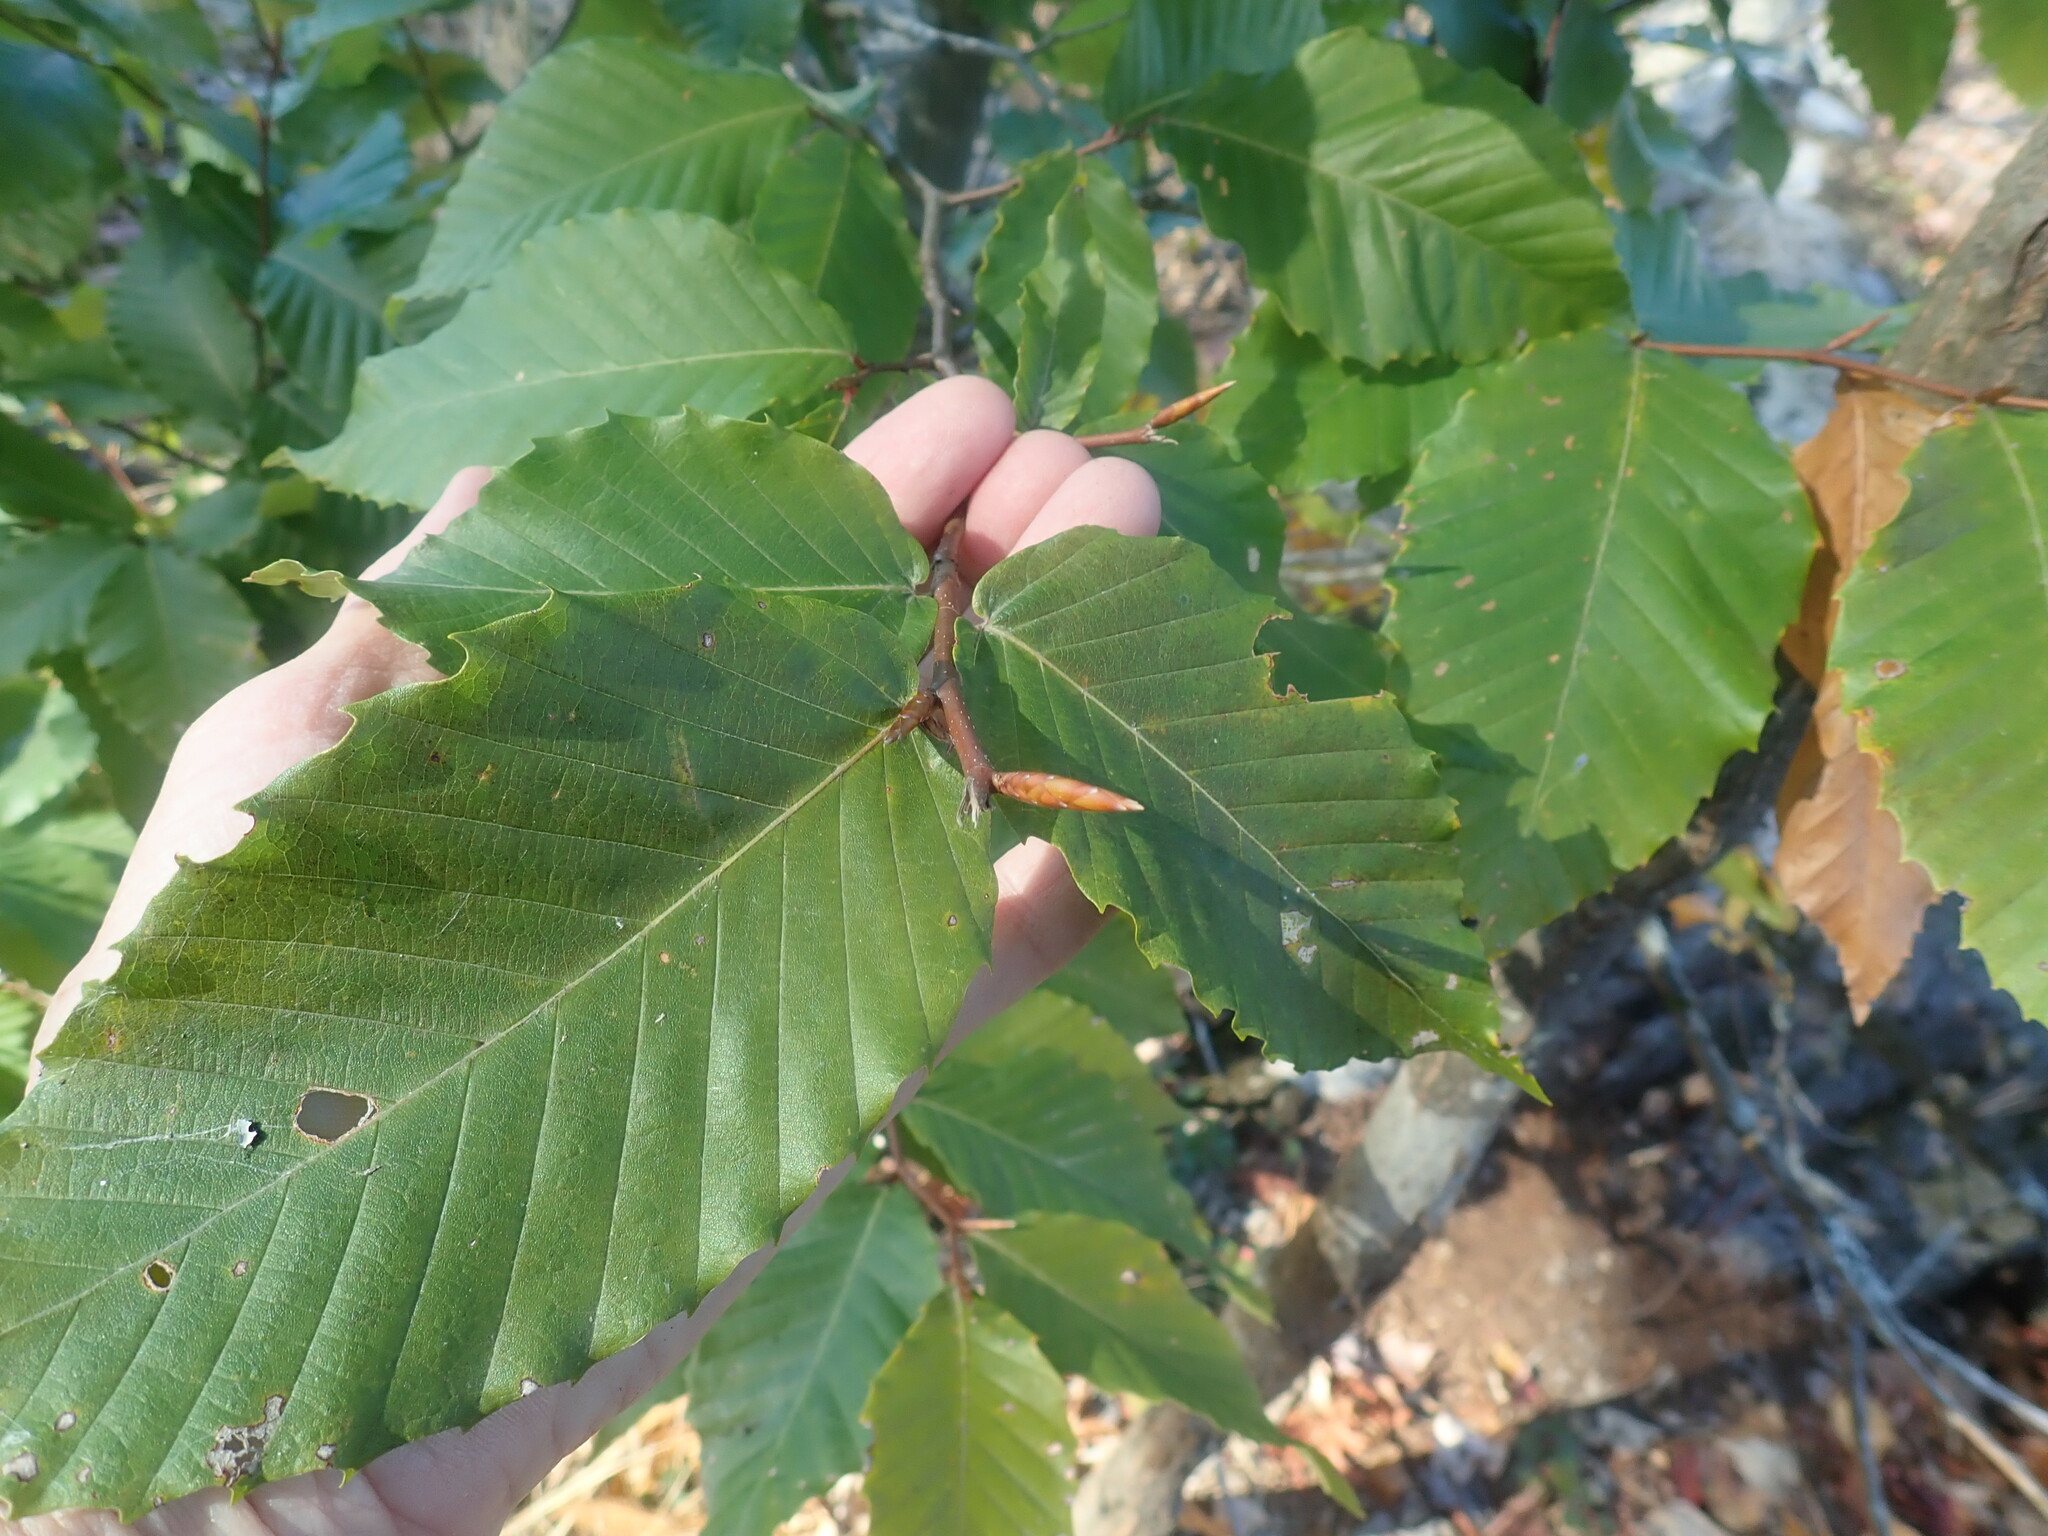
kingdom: Plantae
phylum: Tracheophyta
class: Magnoliopsida
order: Fagales
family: Fagaceae
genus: Fagus
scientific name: Fagus grandifolia
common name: American beech
